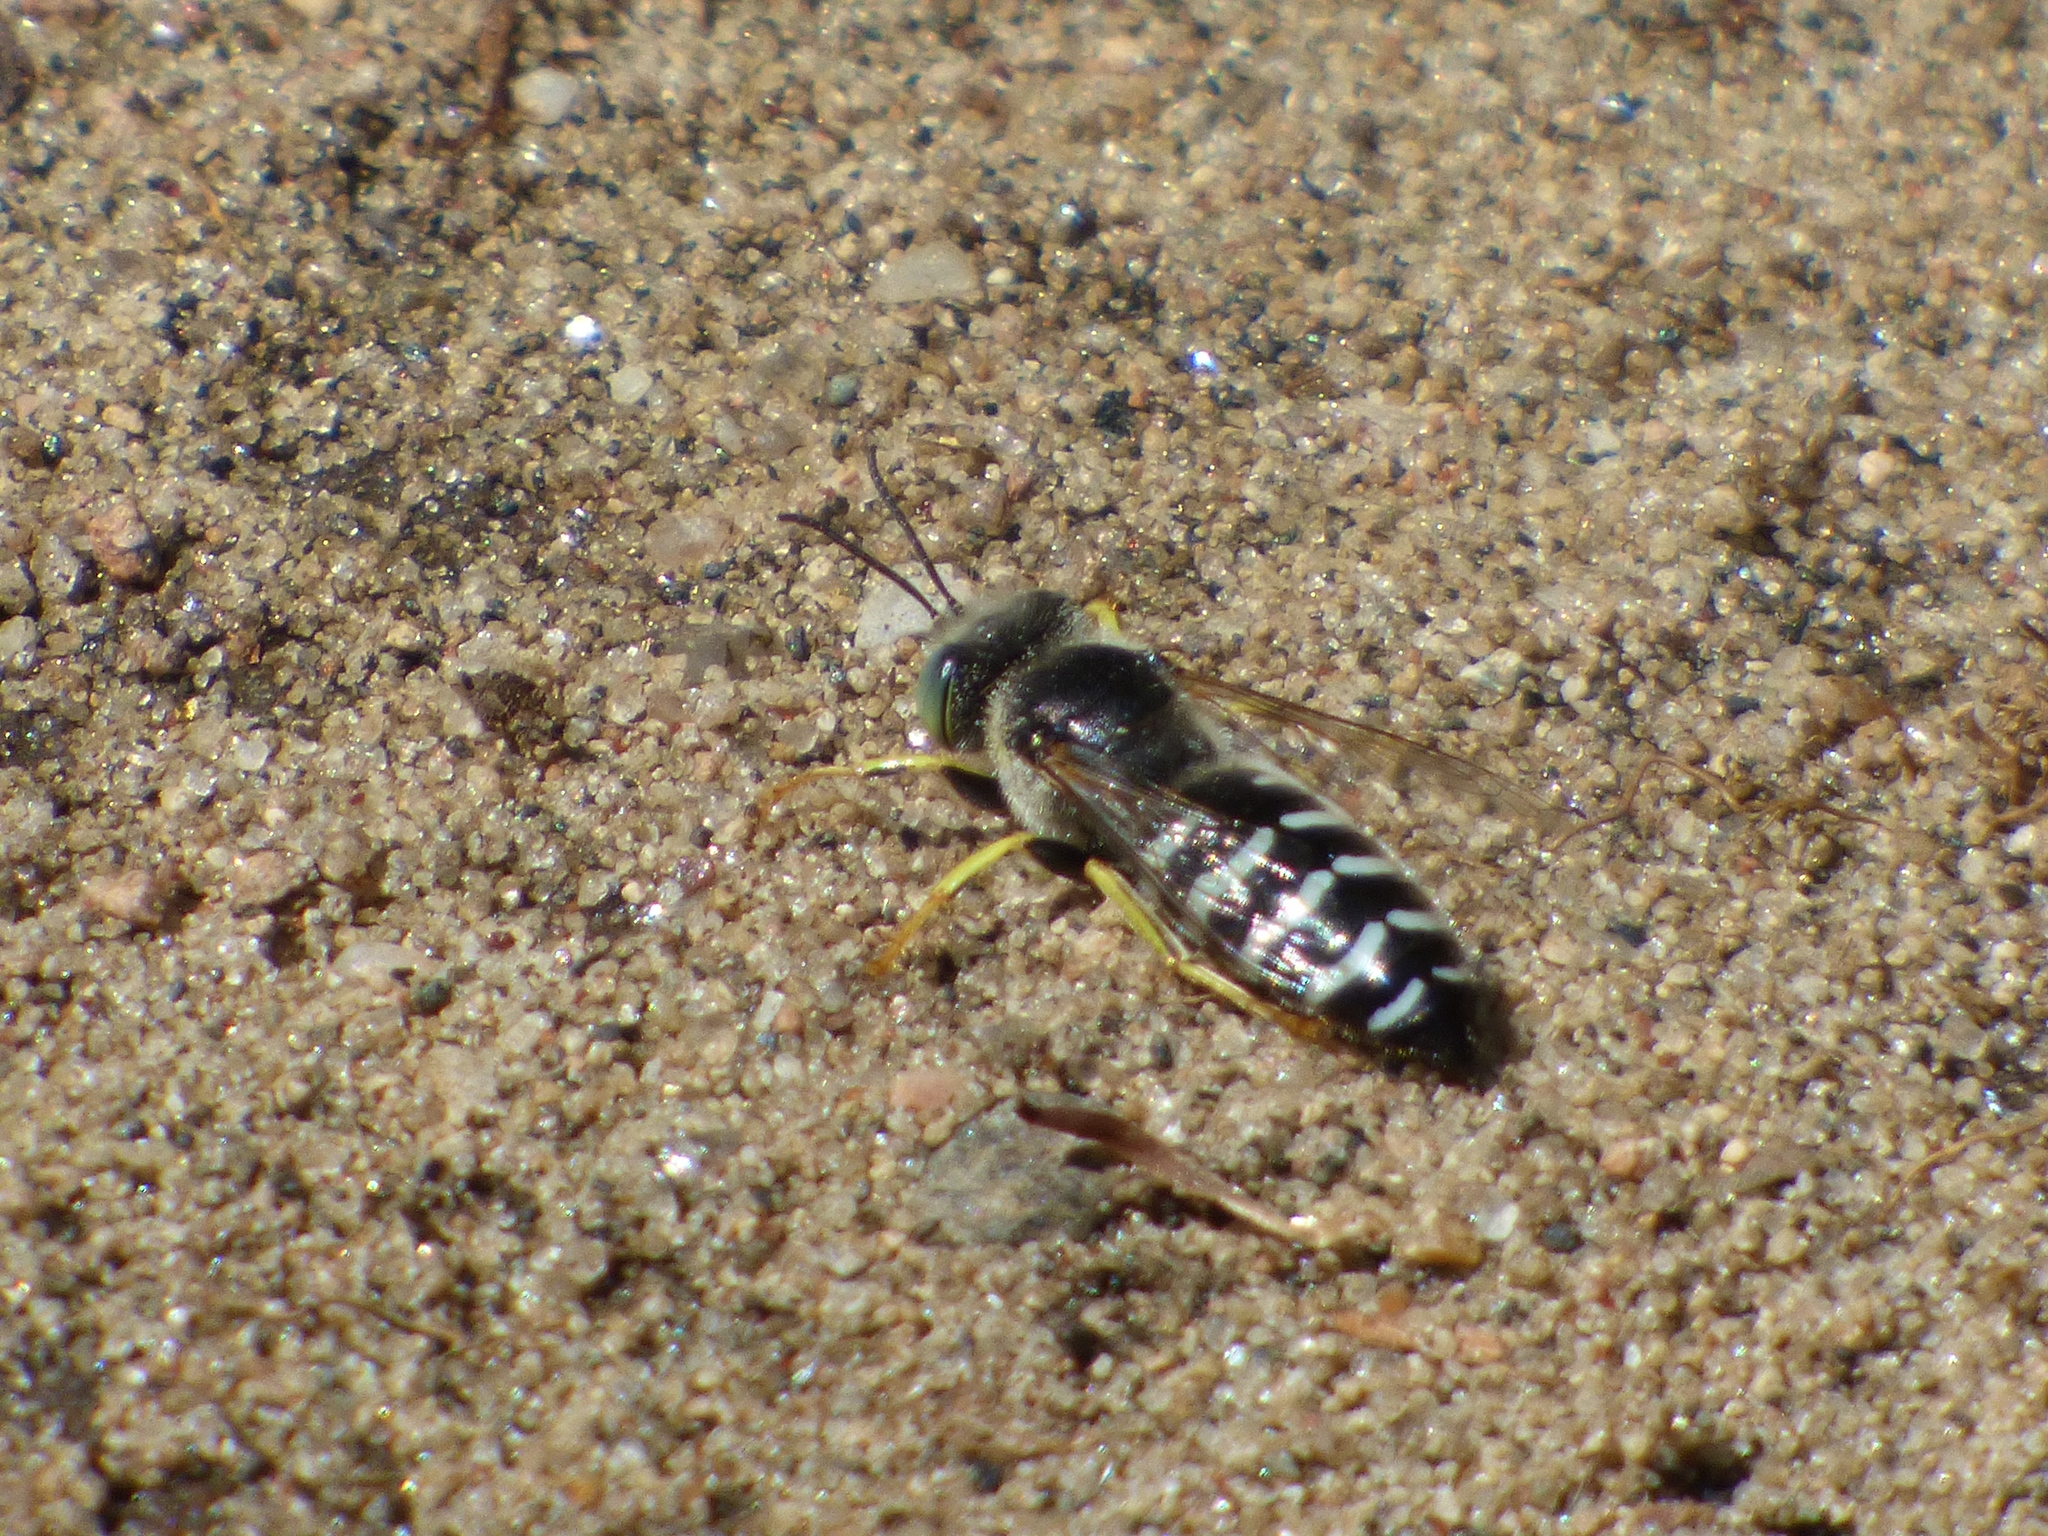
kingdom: Animalia
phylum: Arthropoda
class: Insecta
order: Hymenoptera
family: Crabronidae
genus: Bembix
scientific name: Bembix americana
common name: American sand wasp
